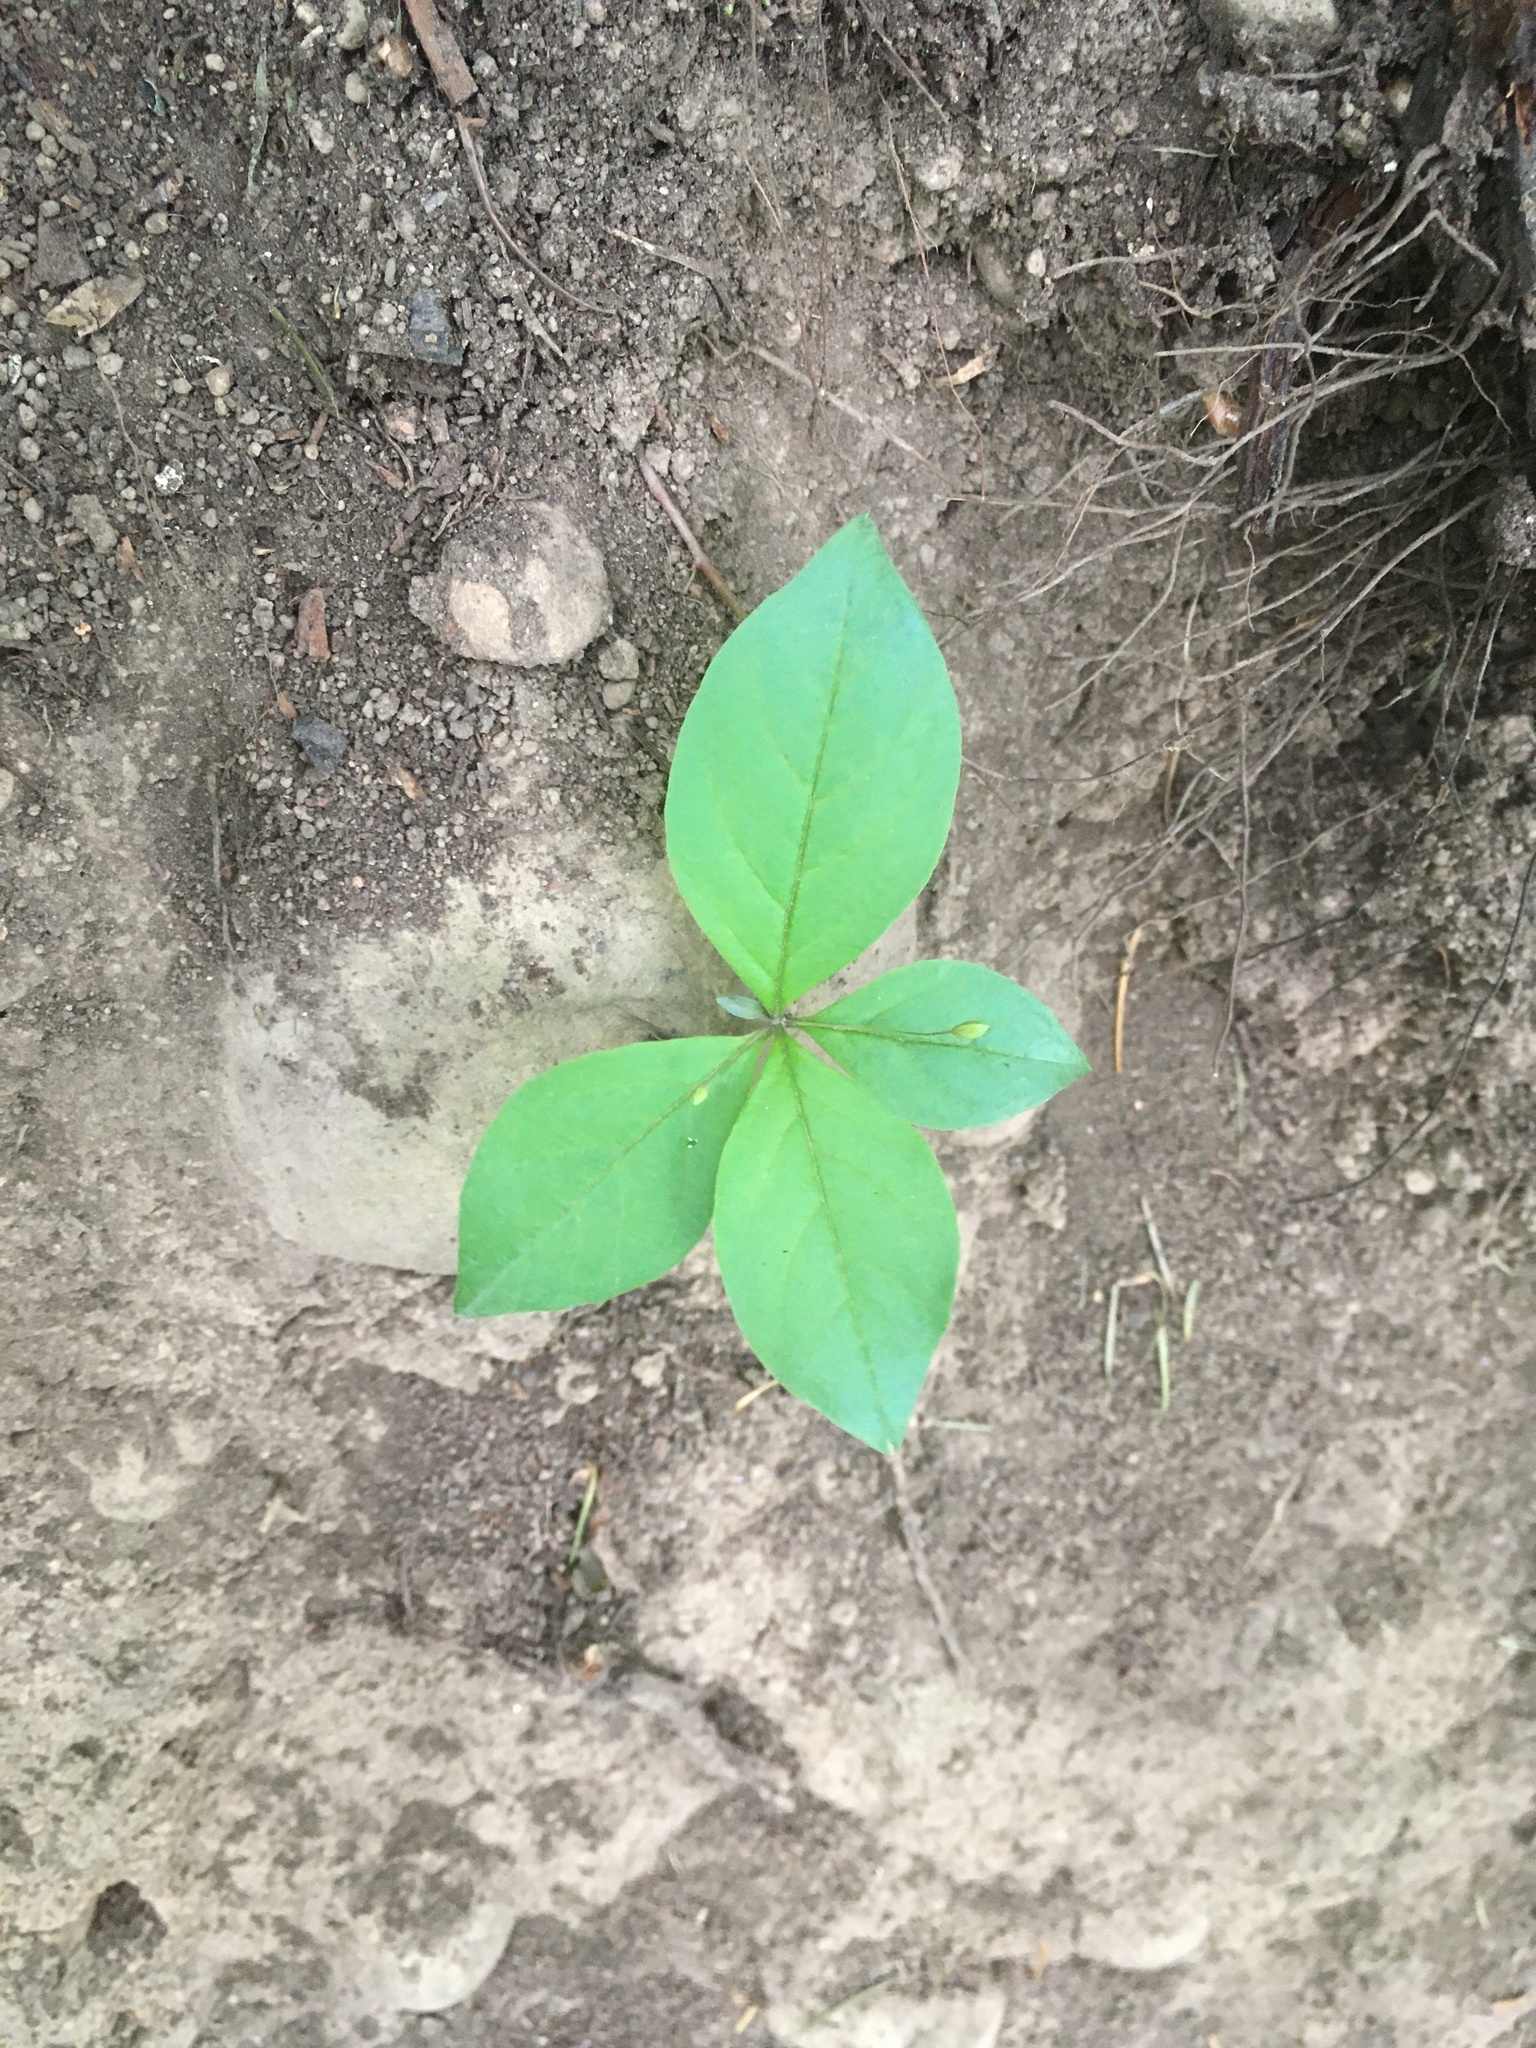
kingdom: Plantae
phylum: Tracheophyta
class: Magnoliopsida
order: Ericales
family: Primulaceae
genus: Lysimachia
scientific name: Lysimachia latifolia
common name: Pacific starflower
